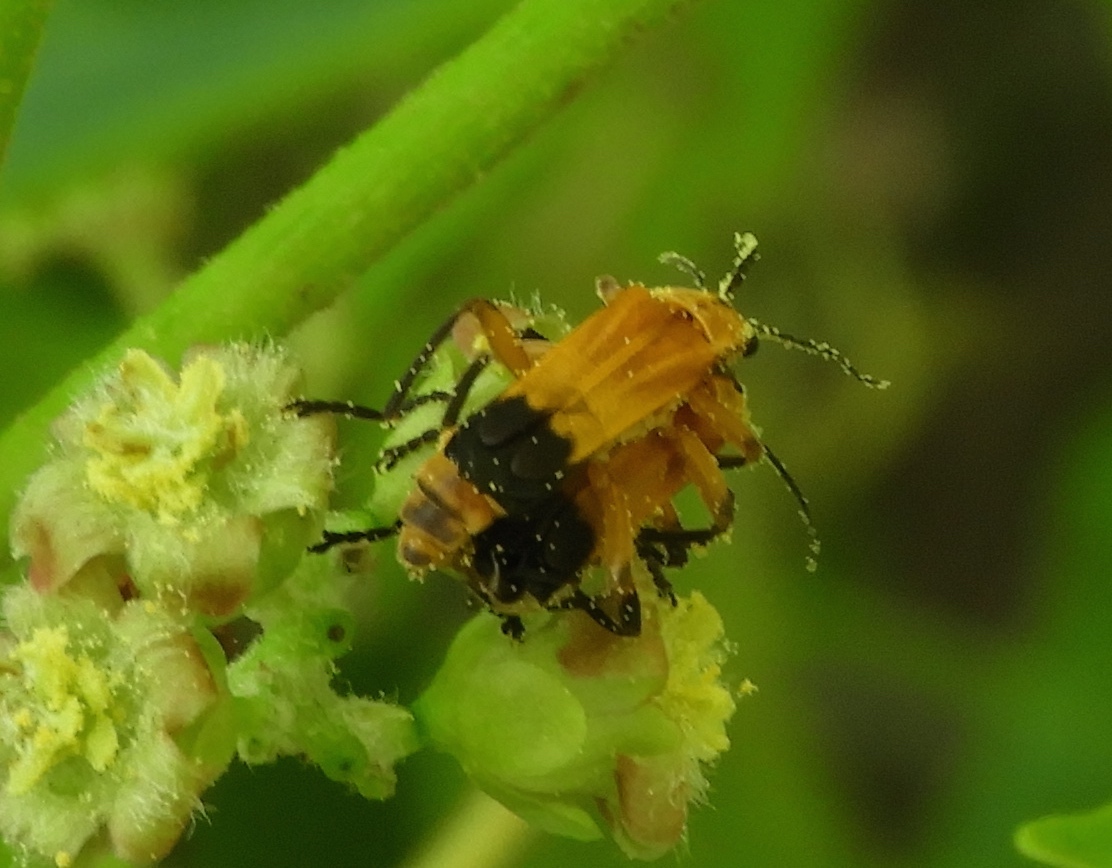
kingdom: Animalia
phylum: Arthropoda
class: Insecta
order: Coleoptera
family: Cantharidae
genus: Daiphron
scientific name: Daiphron proteum
